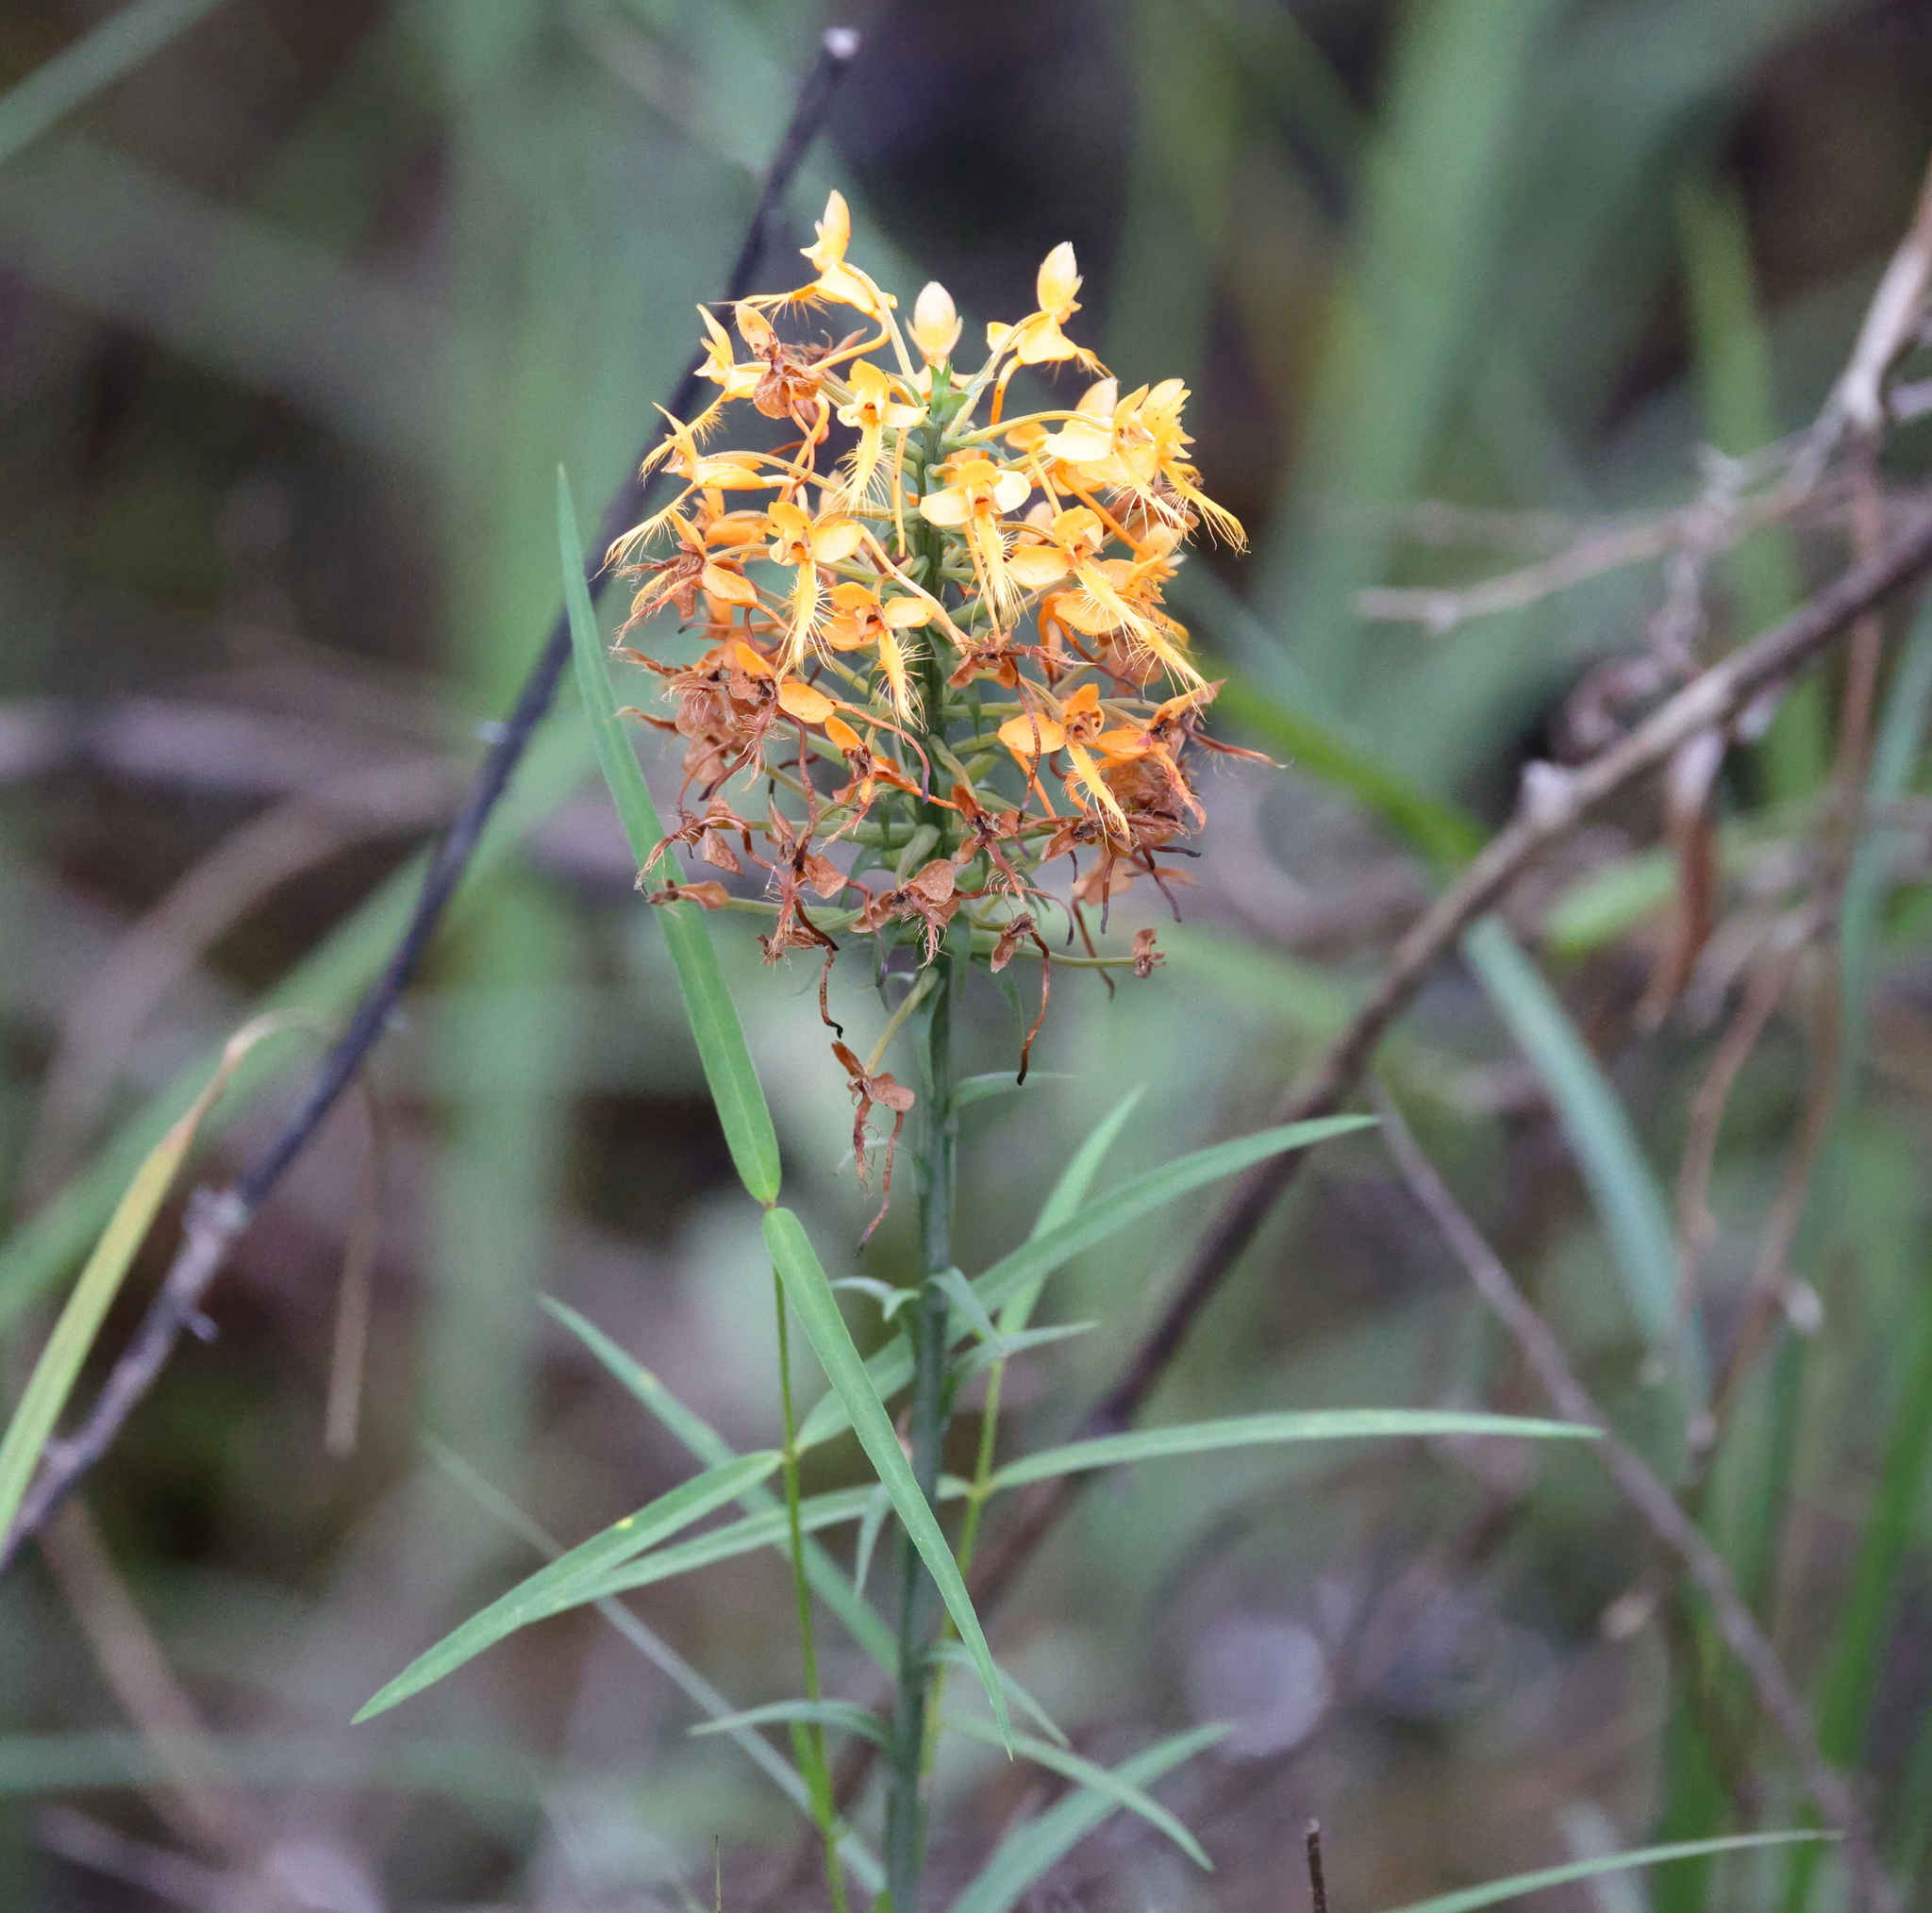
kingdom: Plantae
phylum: Tracheophyta
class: Liliopsida
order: Asparagales
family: Orchidaceae
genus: Platanthera
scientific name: Platanthera ciliaris
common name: Yellow fringed orchid
